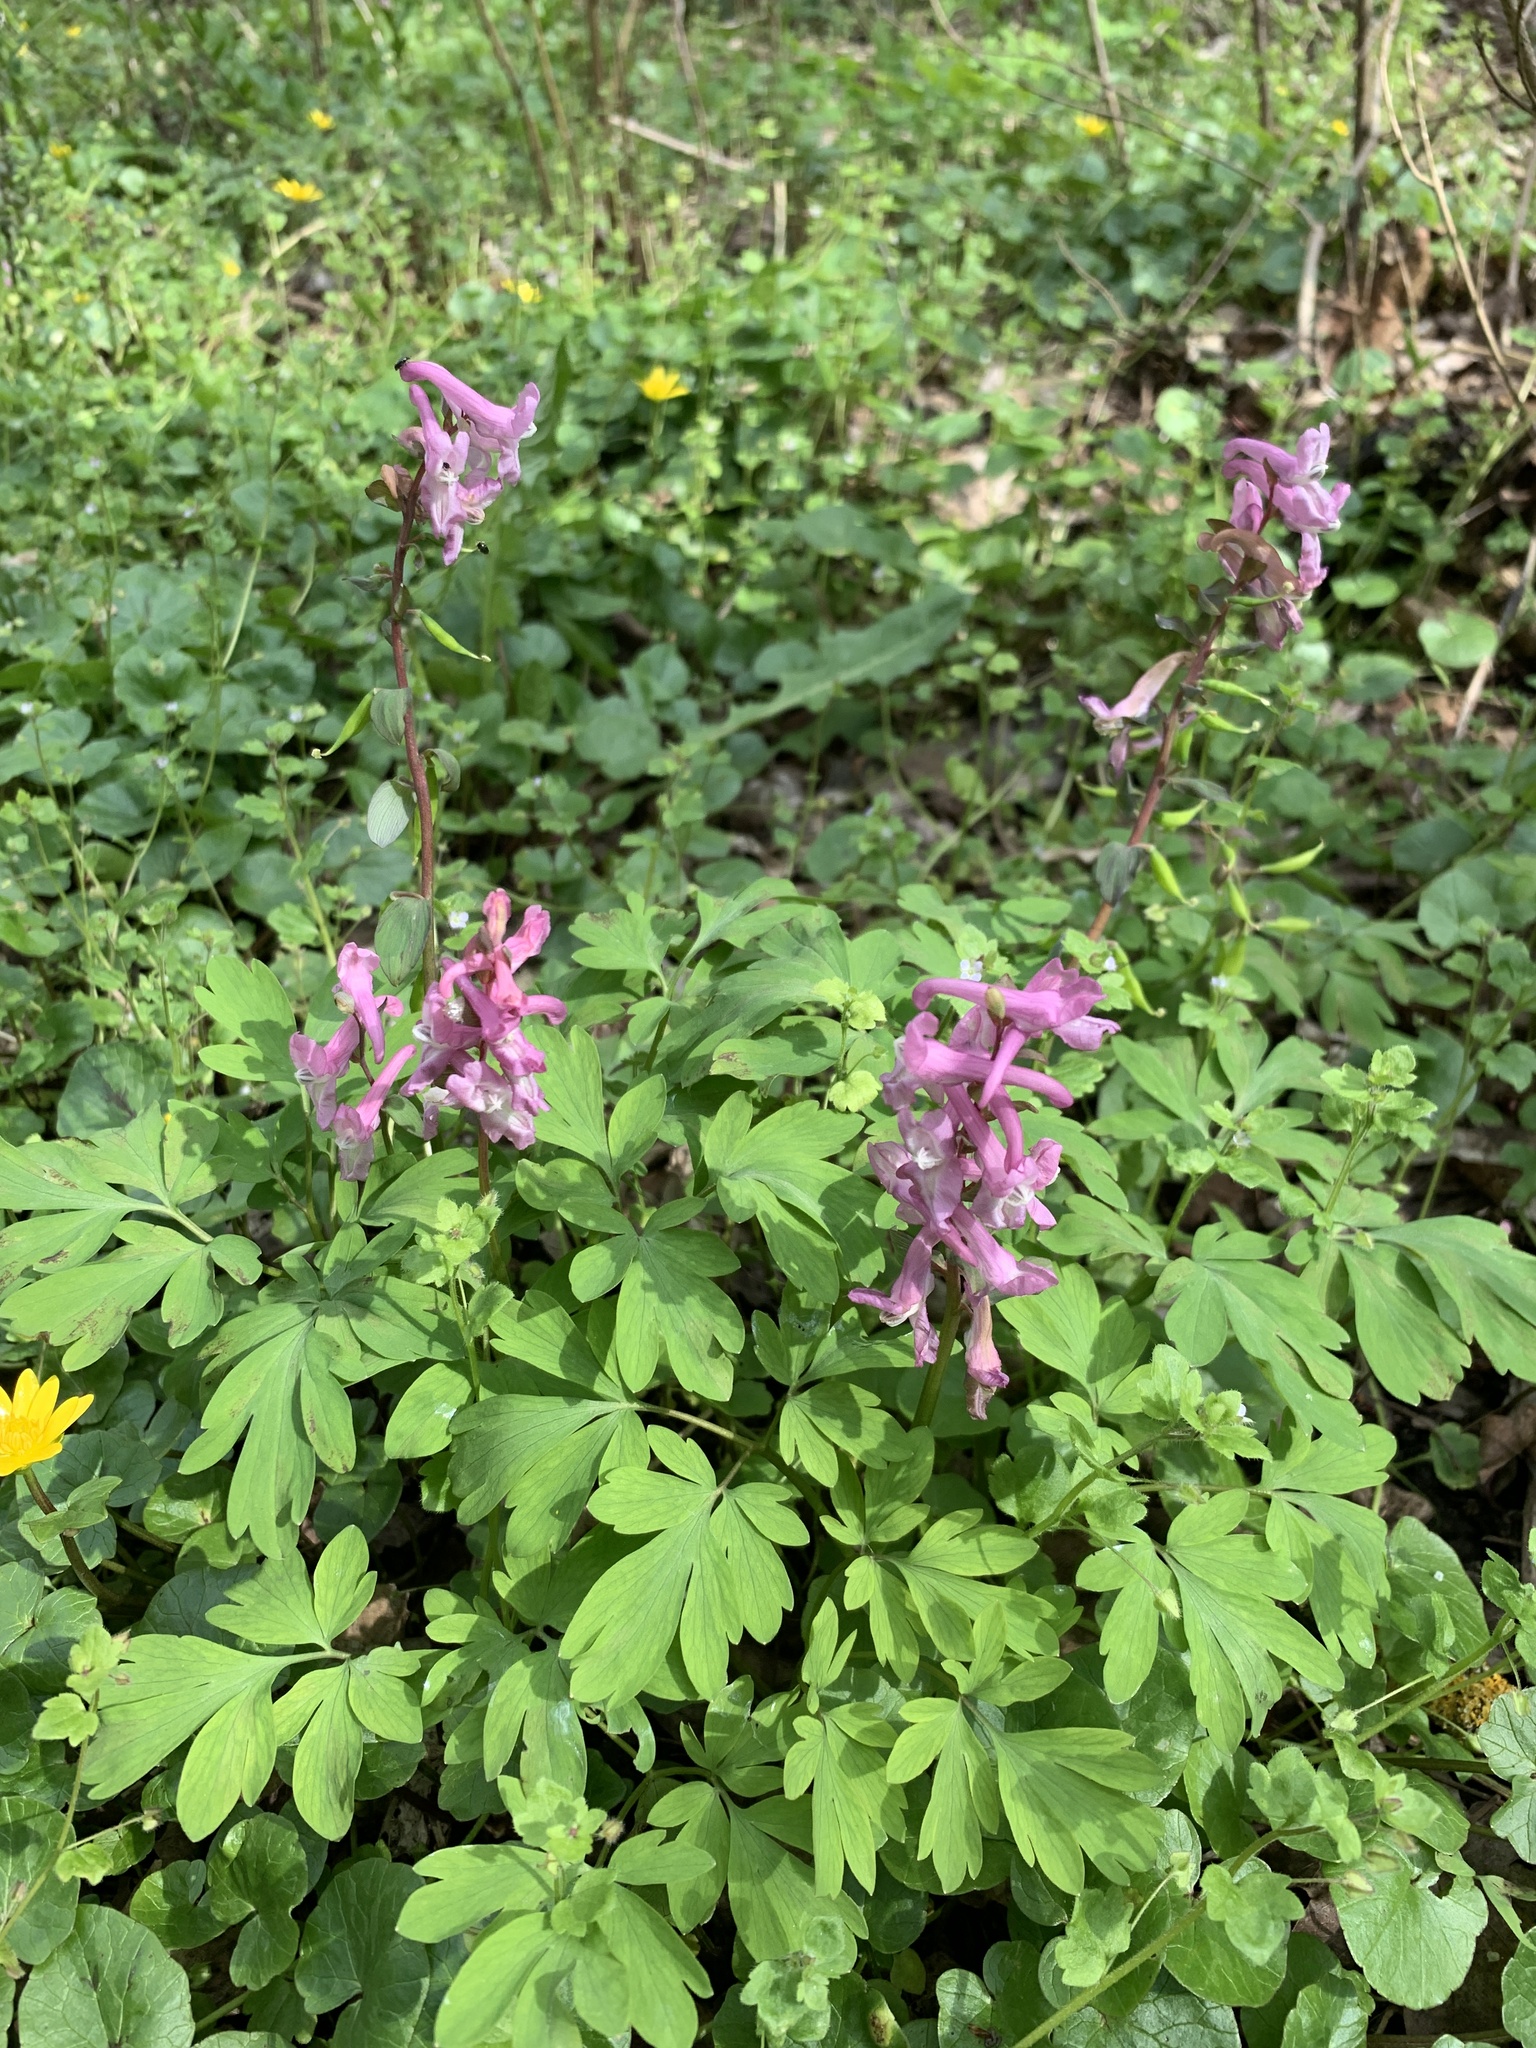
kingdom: Plantae
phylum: Tracheophyta
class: Magnoliopsida
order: Ranunculales
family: Papaveraceae
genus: Corydalis
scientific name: Corydalis cava
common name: Hollowroot
